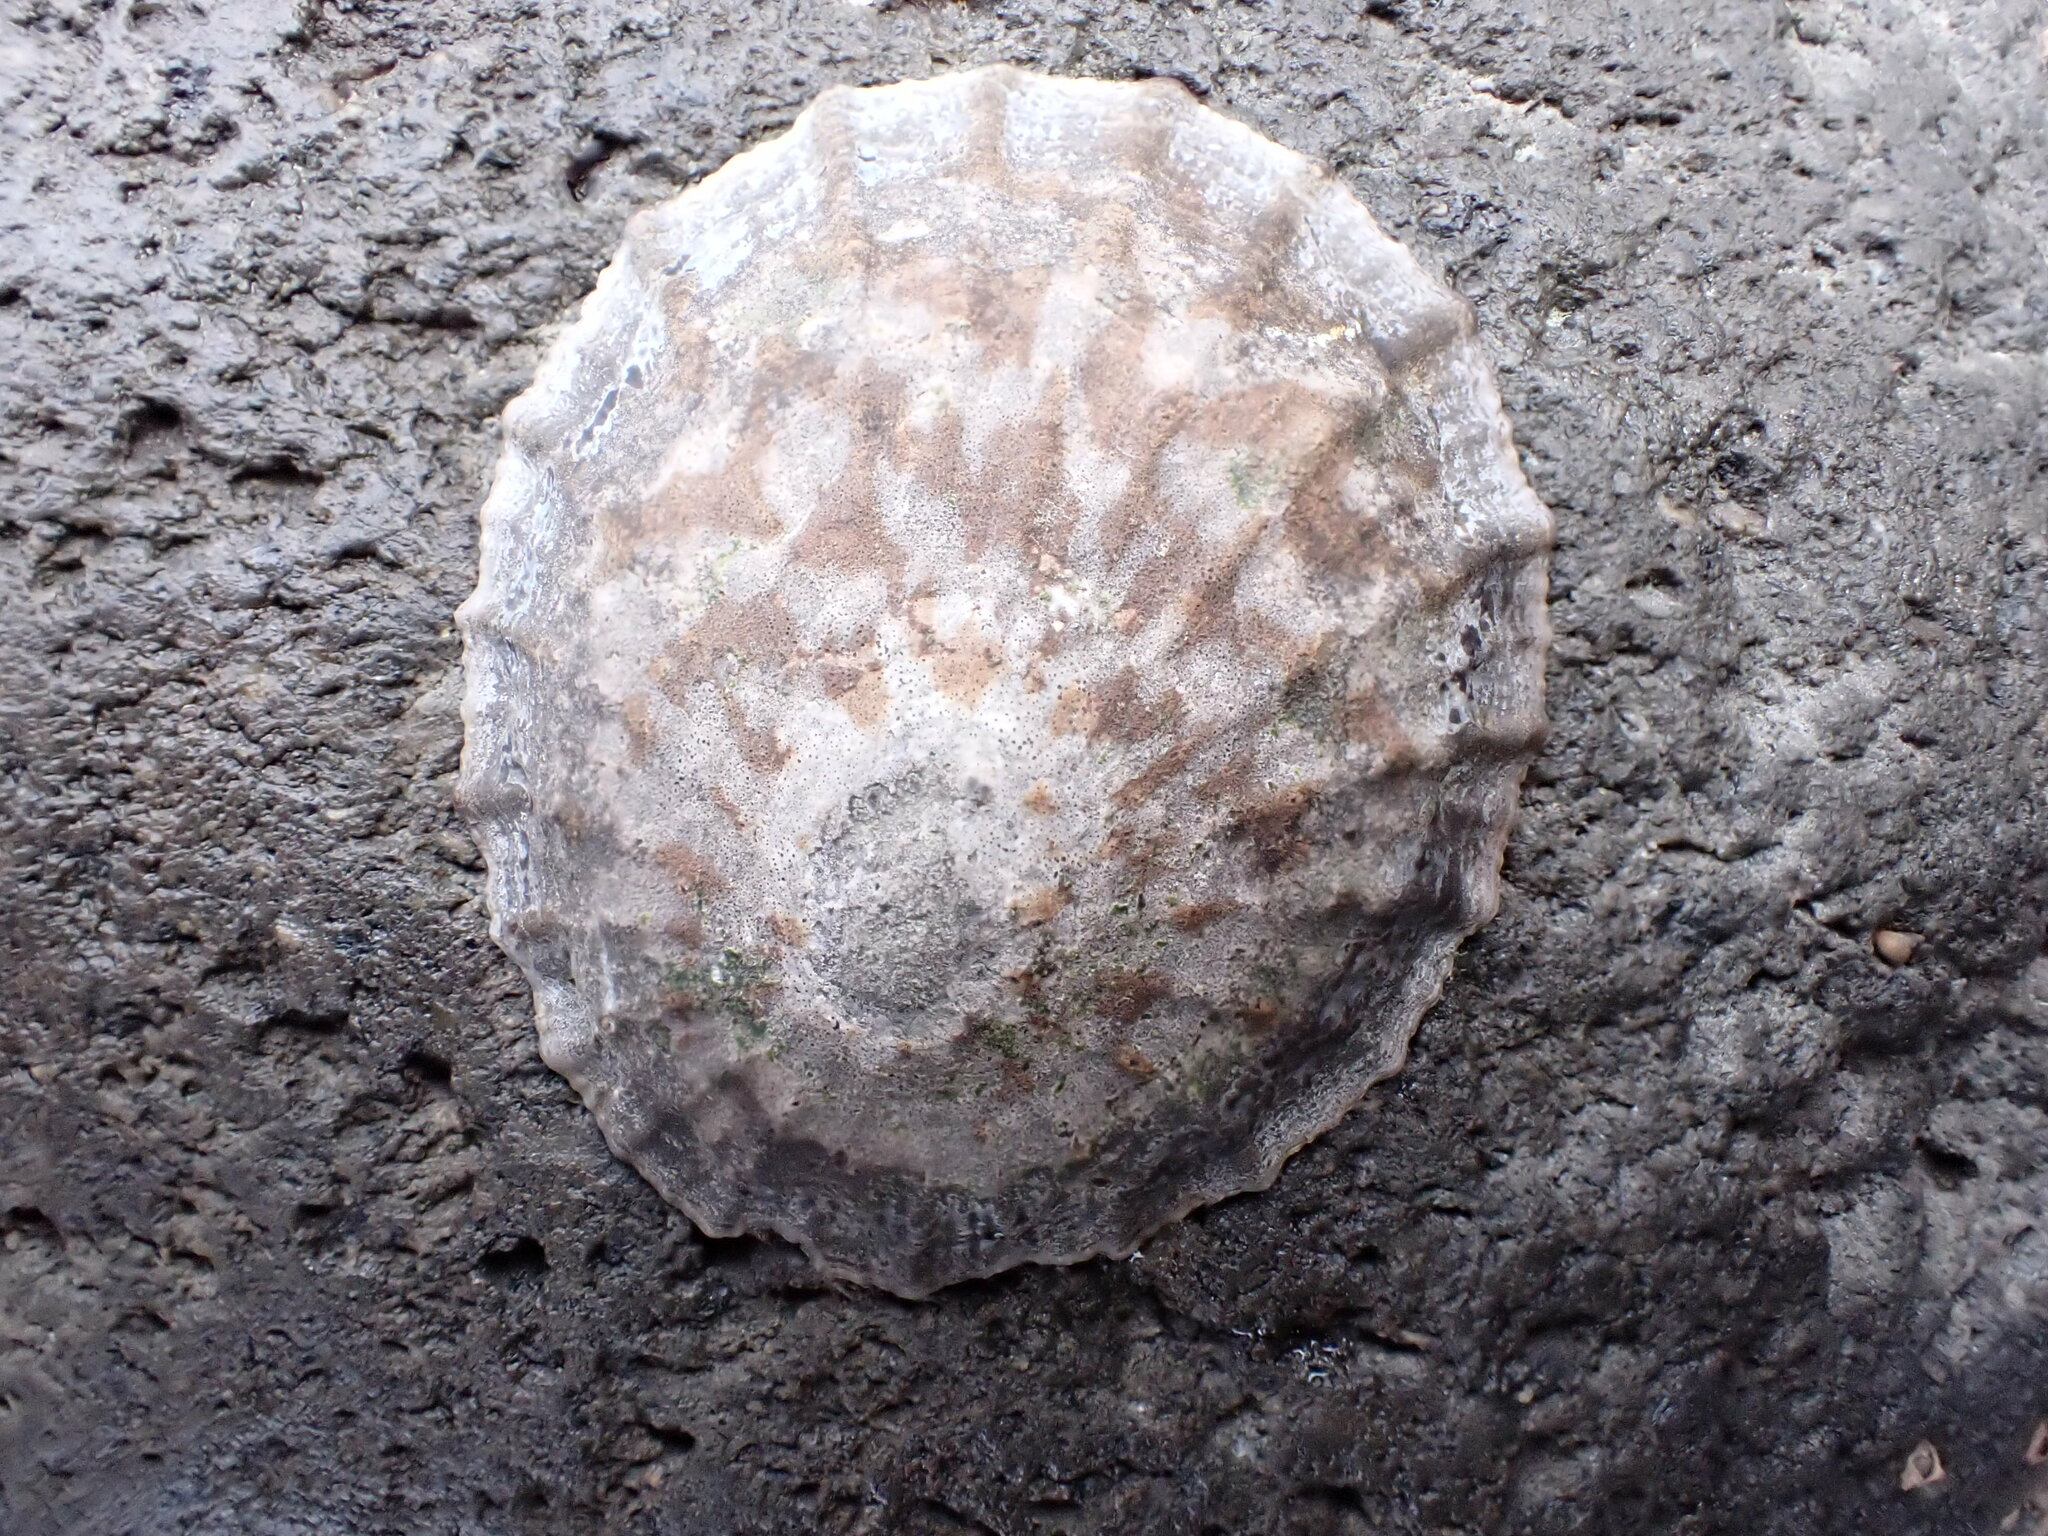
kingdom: Animalia
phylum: Mollusca
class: Gastropoda
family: Nacellidae
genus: Cellana
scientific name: Cellana radians
